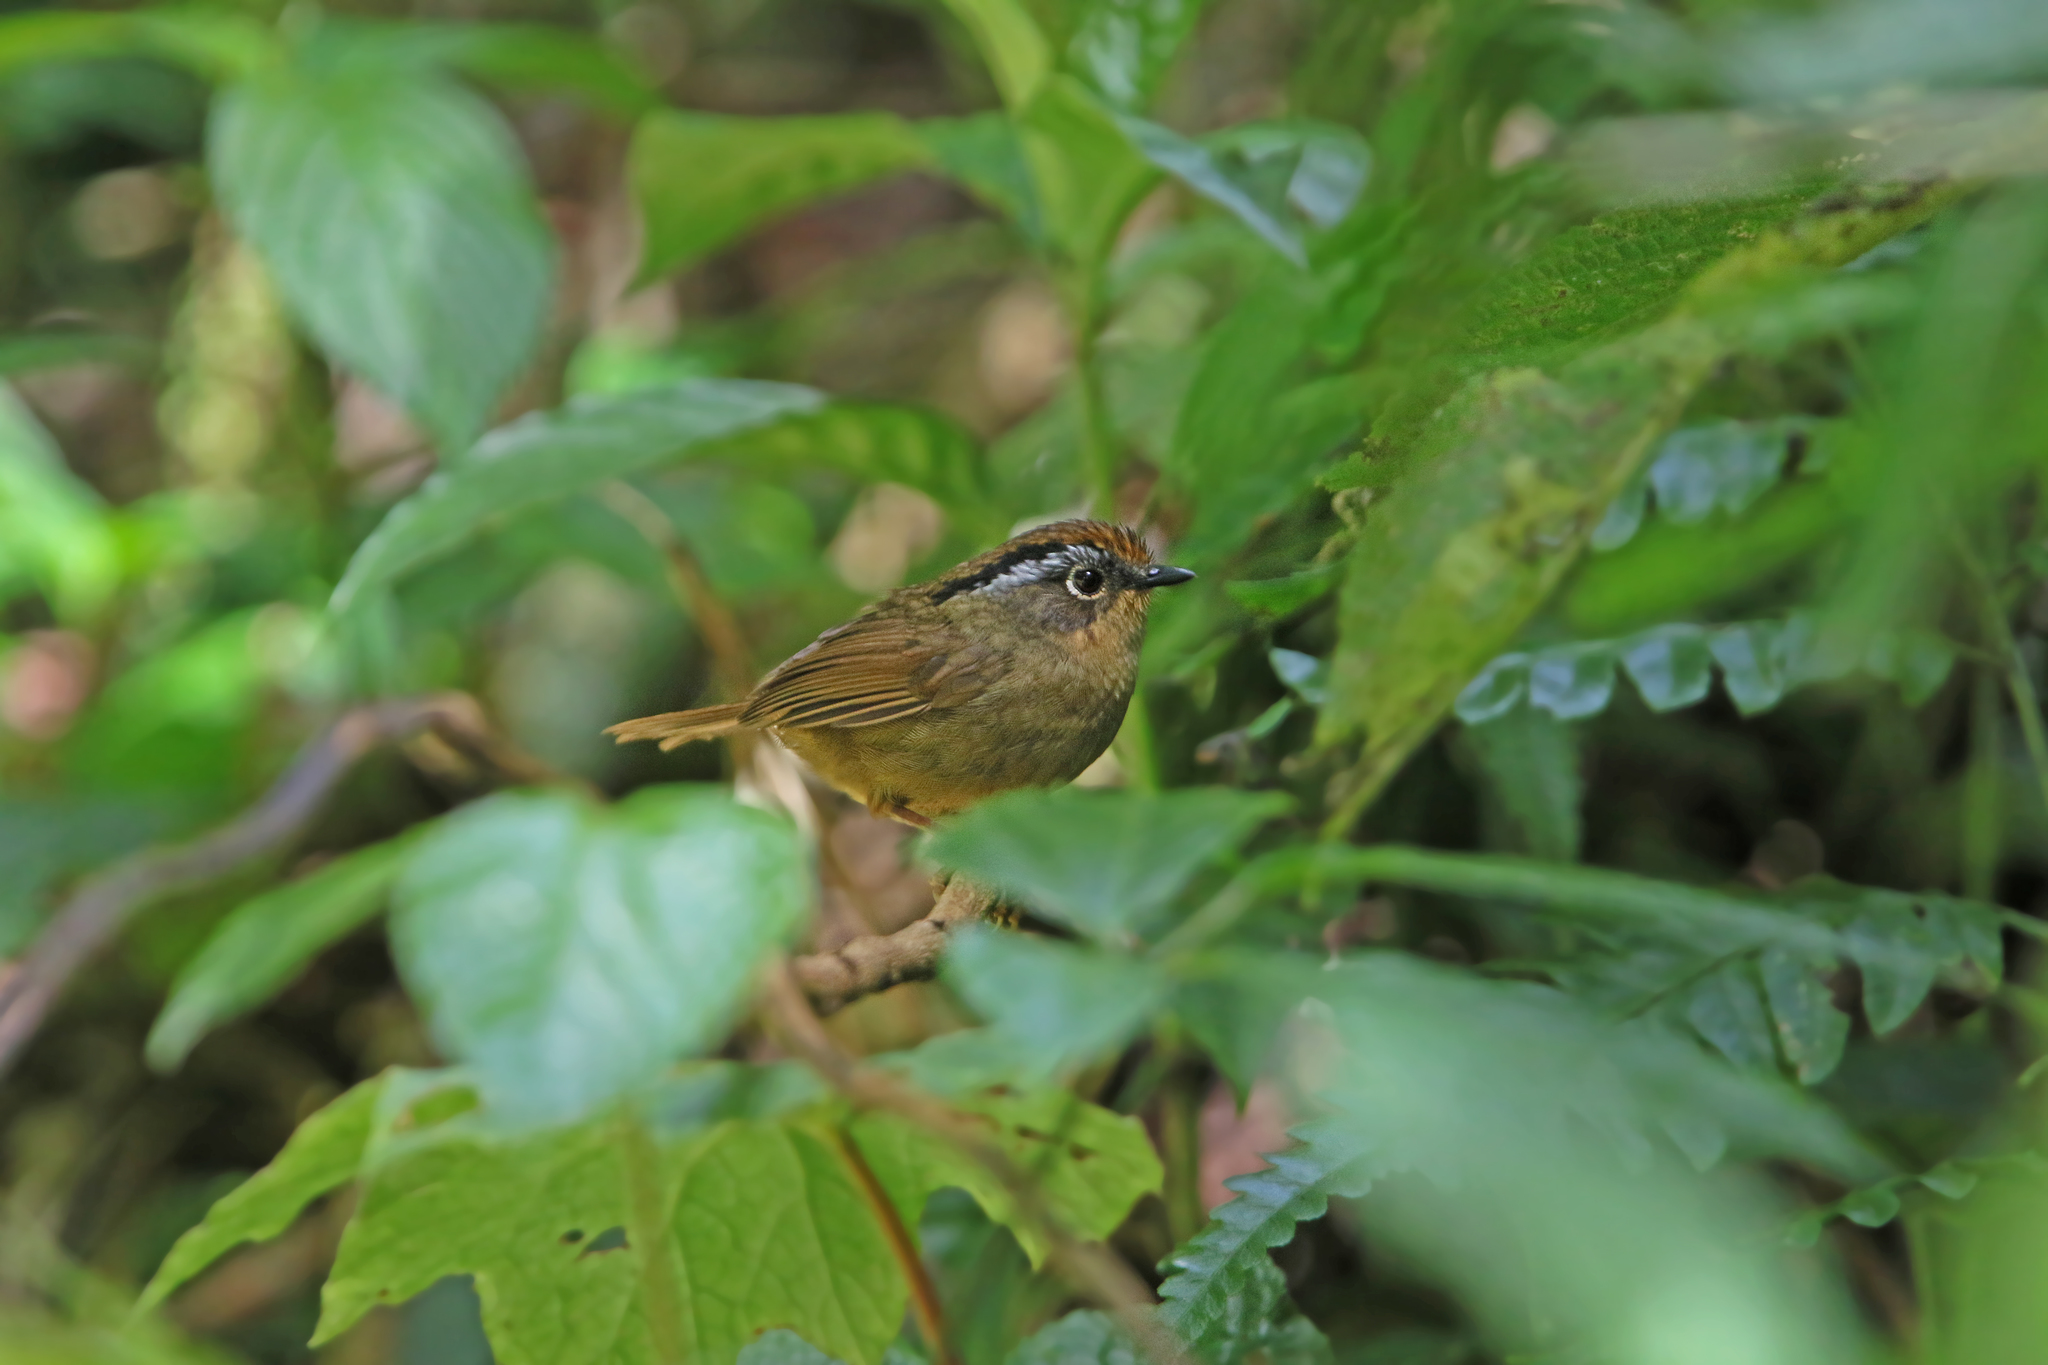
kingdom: Animalia
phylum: Chordata
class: Aves
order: Passeriformes
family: Pellorneidae
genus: Alcippe
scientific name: Alcippe dubia
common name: Rusty-capped fulvetta
